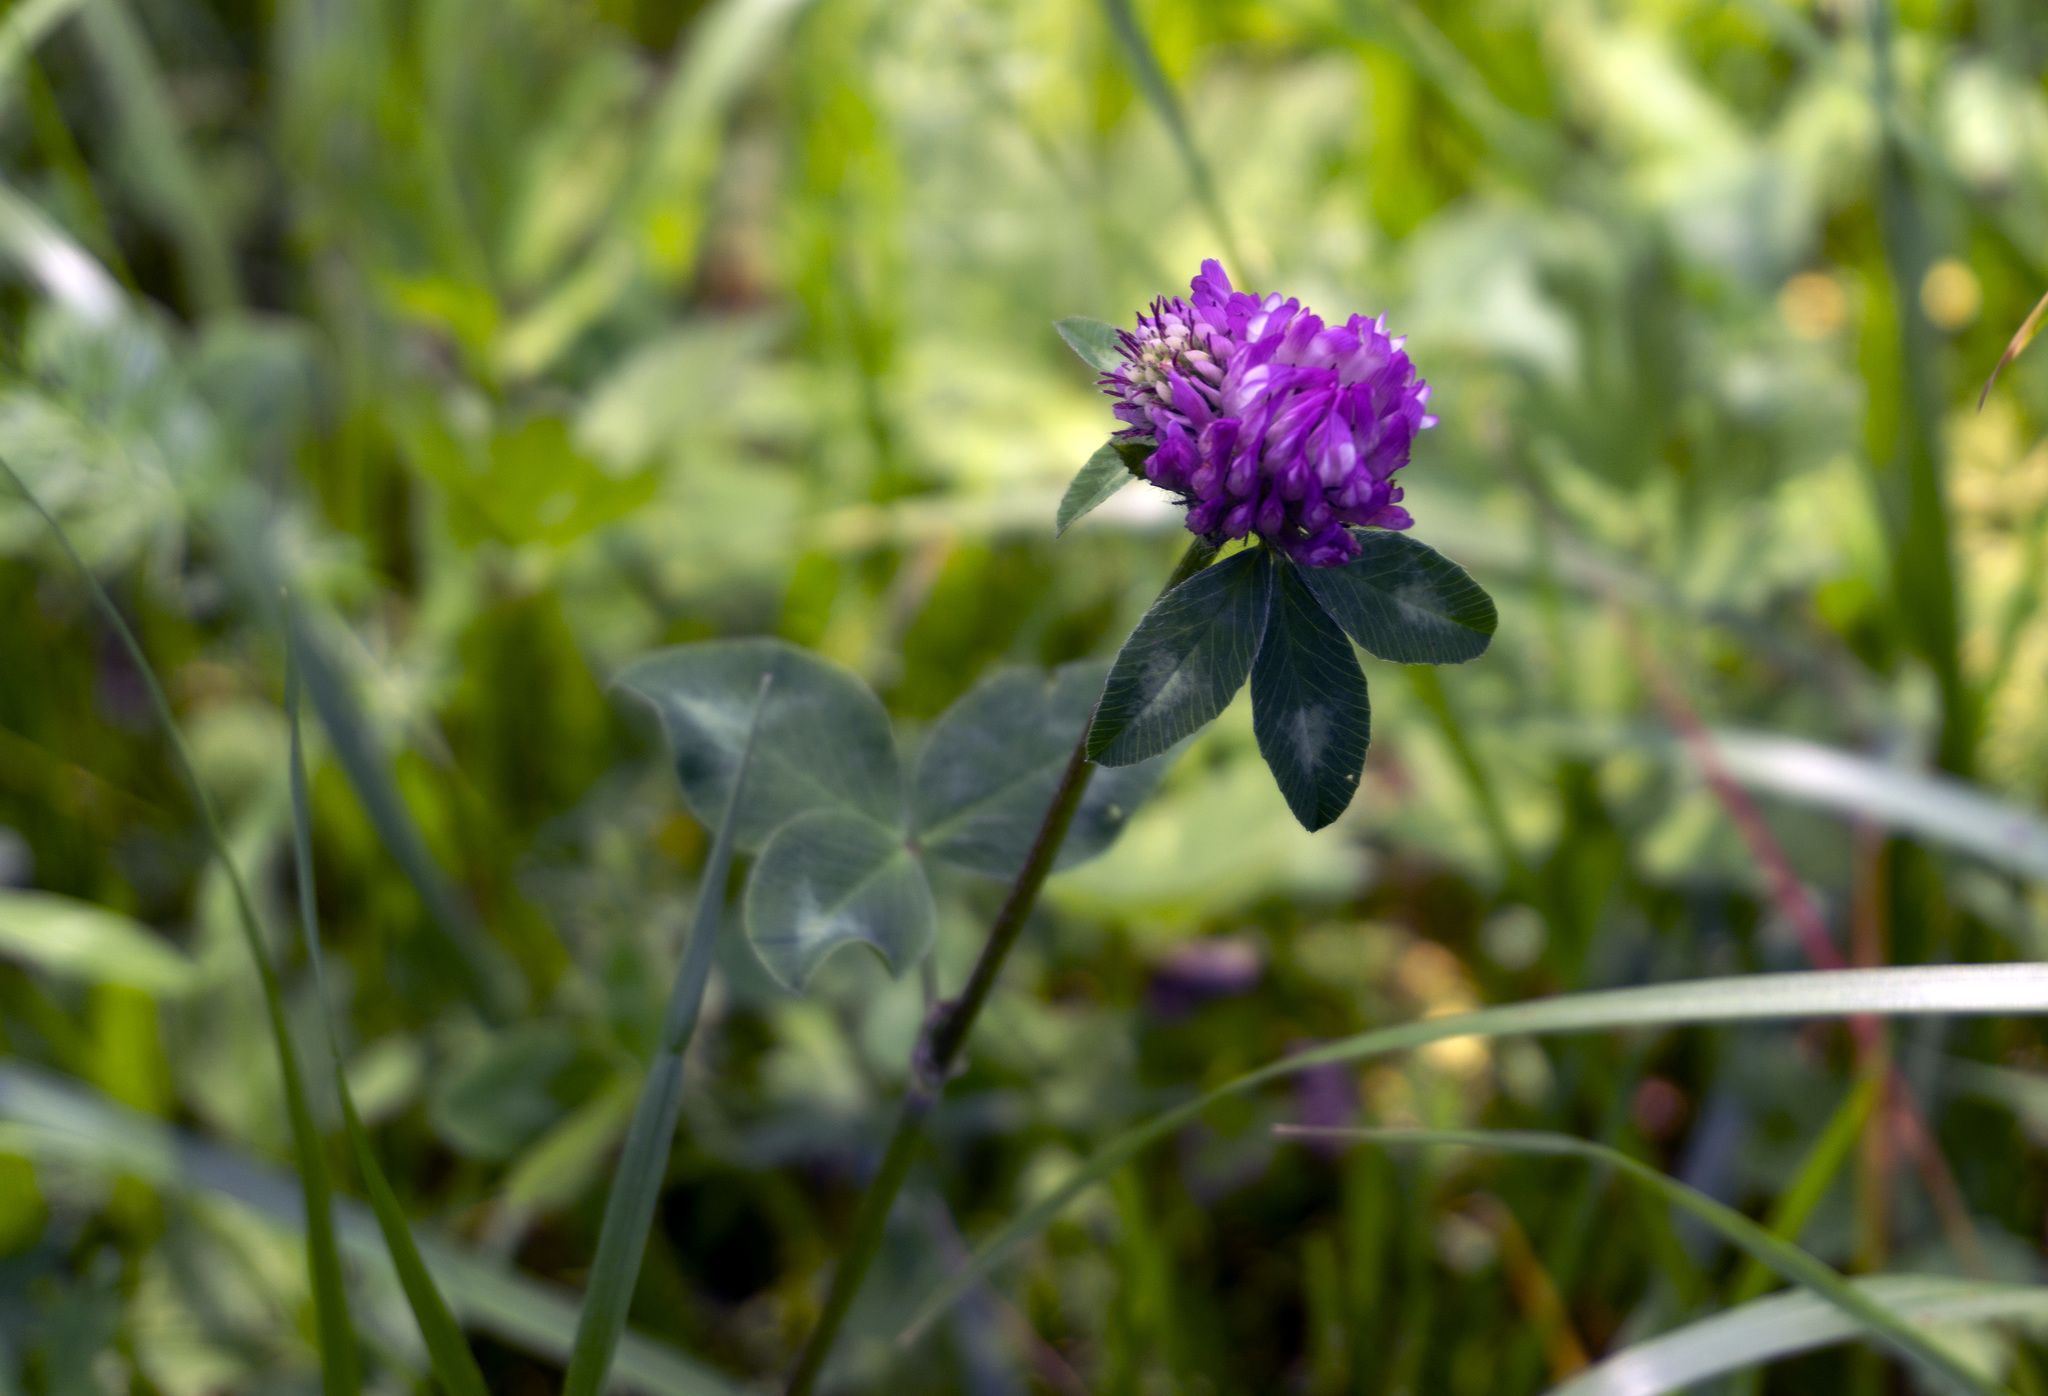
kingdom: Plantae
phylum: Tracheophyta
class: Magnoliopsida
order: Fabales
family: Fabaceae
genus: Trifolium
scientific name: Trifolium pratense
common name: Red clover
